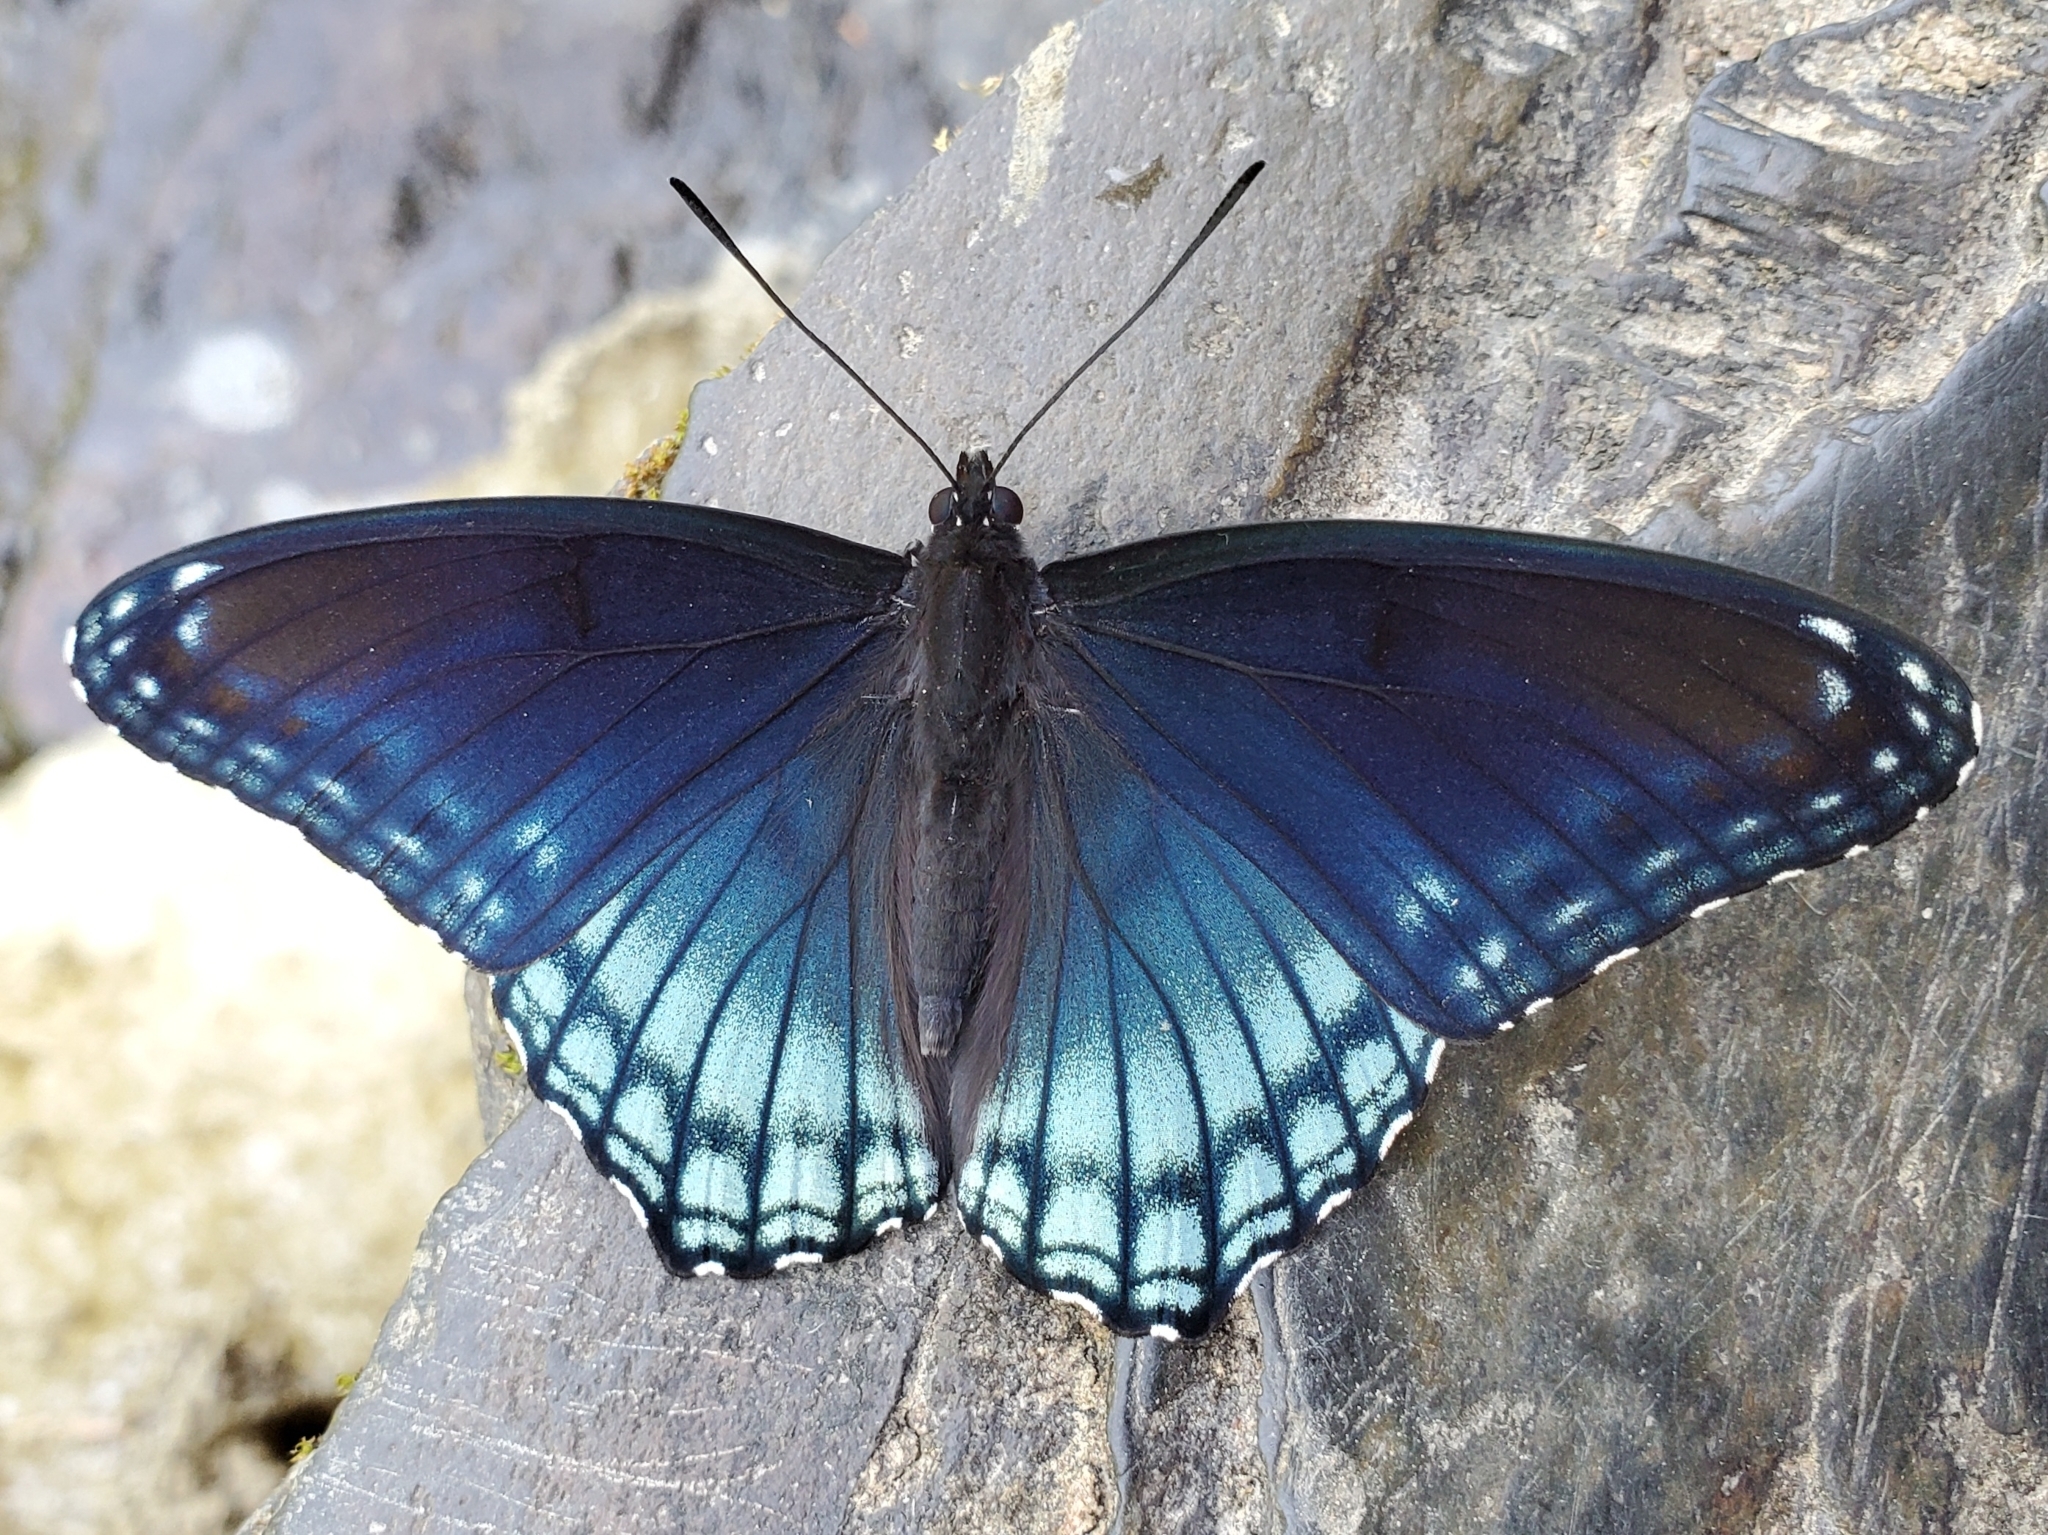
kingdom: Animalia
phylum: Arthropoda
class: Insecta
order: Lepidoptera
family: Nymphalidae
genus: Limenitis
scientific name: Limenitis arthemis
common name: Red-spotted admiral
